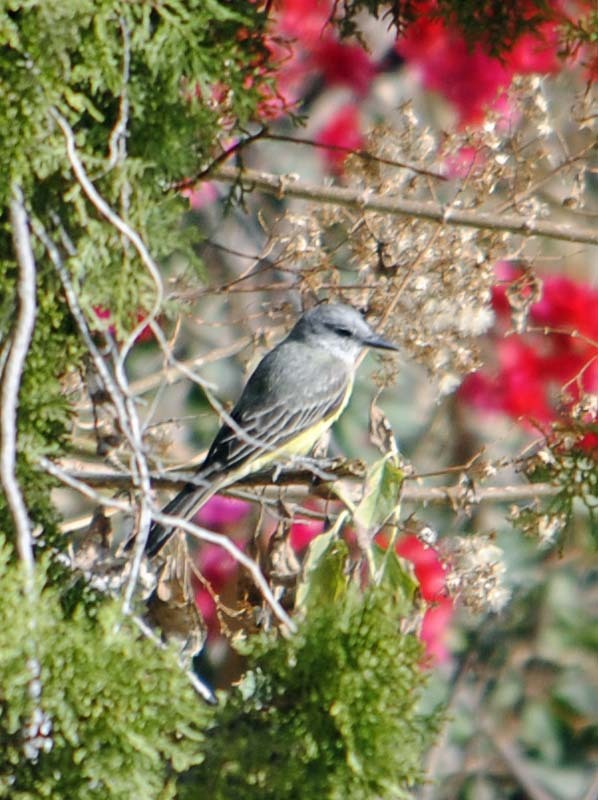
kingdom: Animalia
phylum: Chordata
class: Aves
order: Passeriformes
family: Tyrannidae
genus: Tyrannus
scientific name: Tyrannus melancholicus
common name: Tropical kingbird
